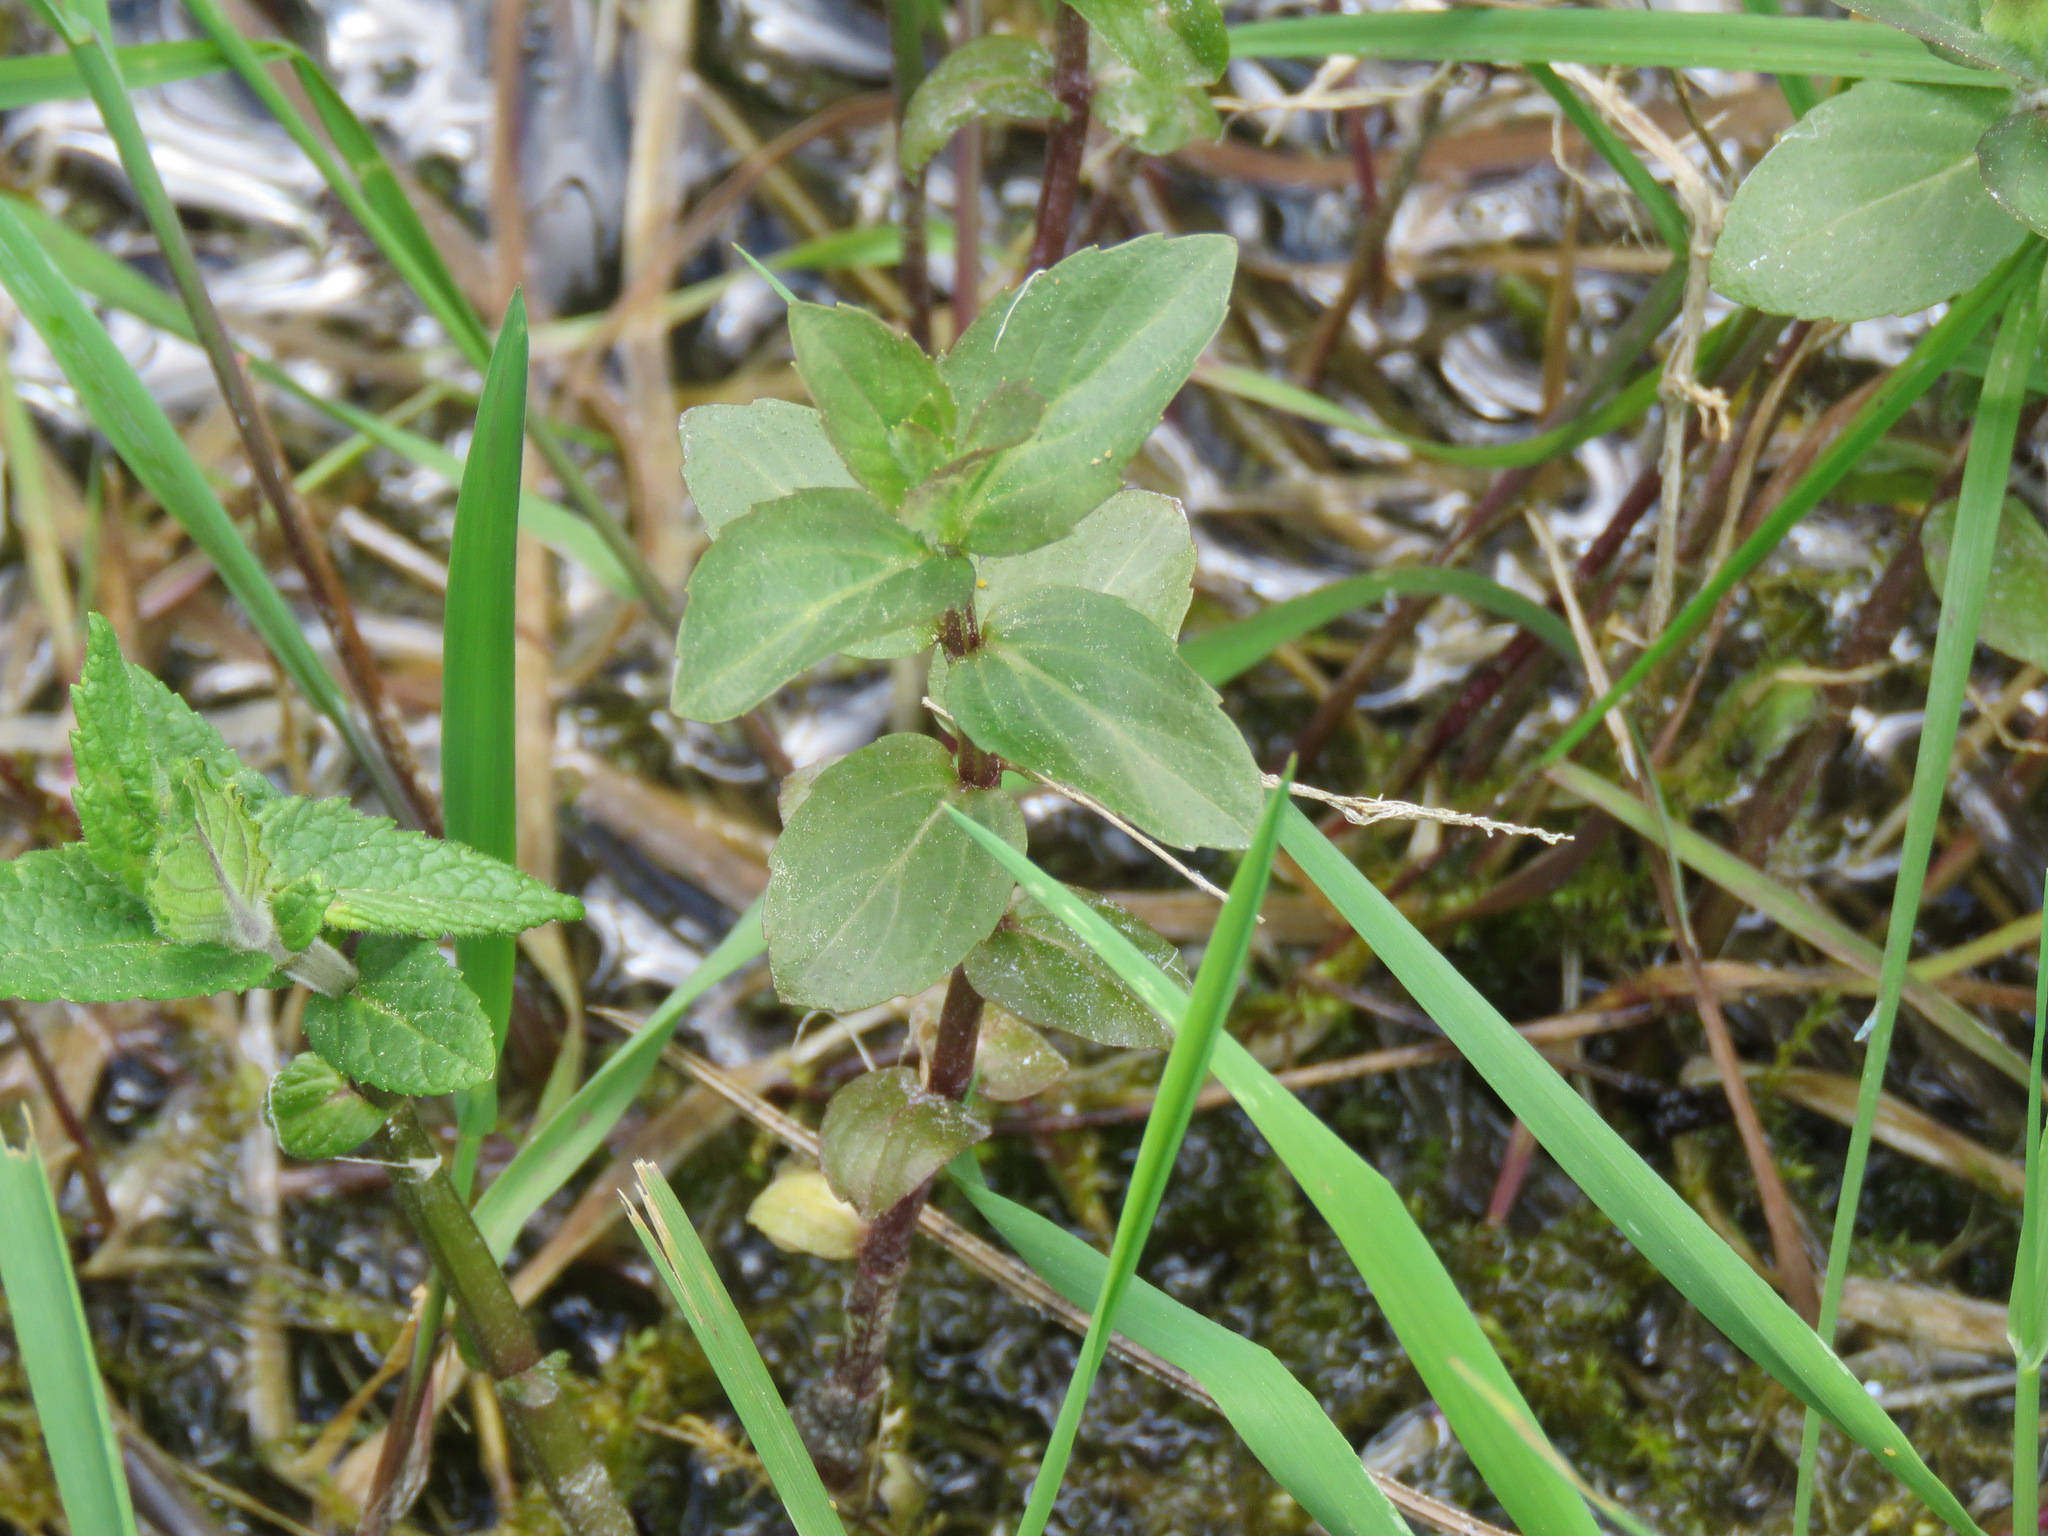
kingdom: Plantae
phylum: Tracheophyta
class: Magnoliopsida
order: Lamiales
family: Plantaginaceae
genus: Veronica
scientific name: Veronica americana
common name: American brooklime
